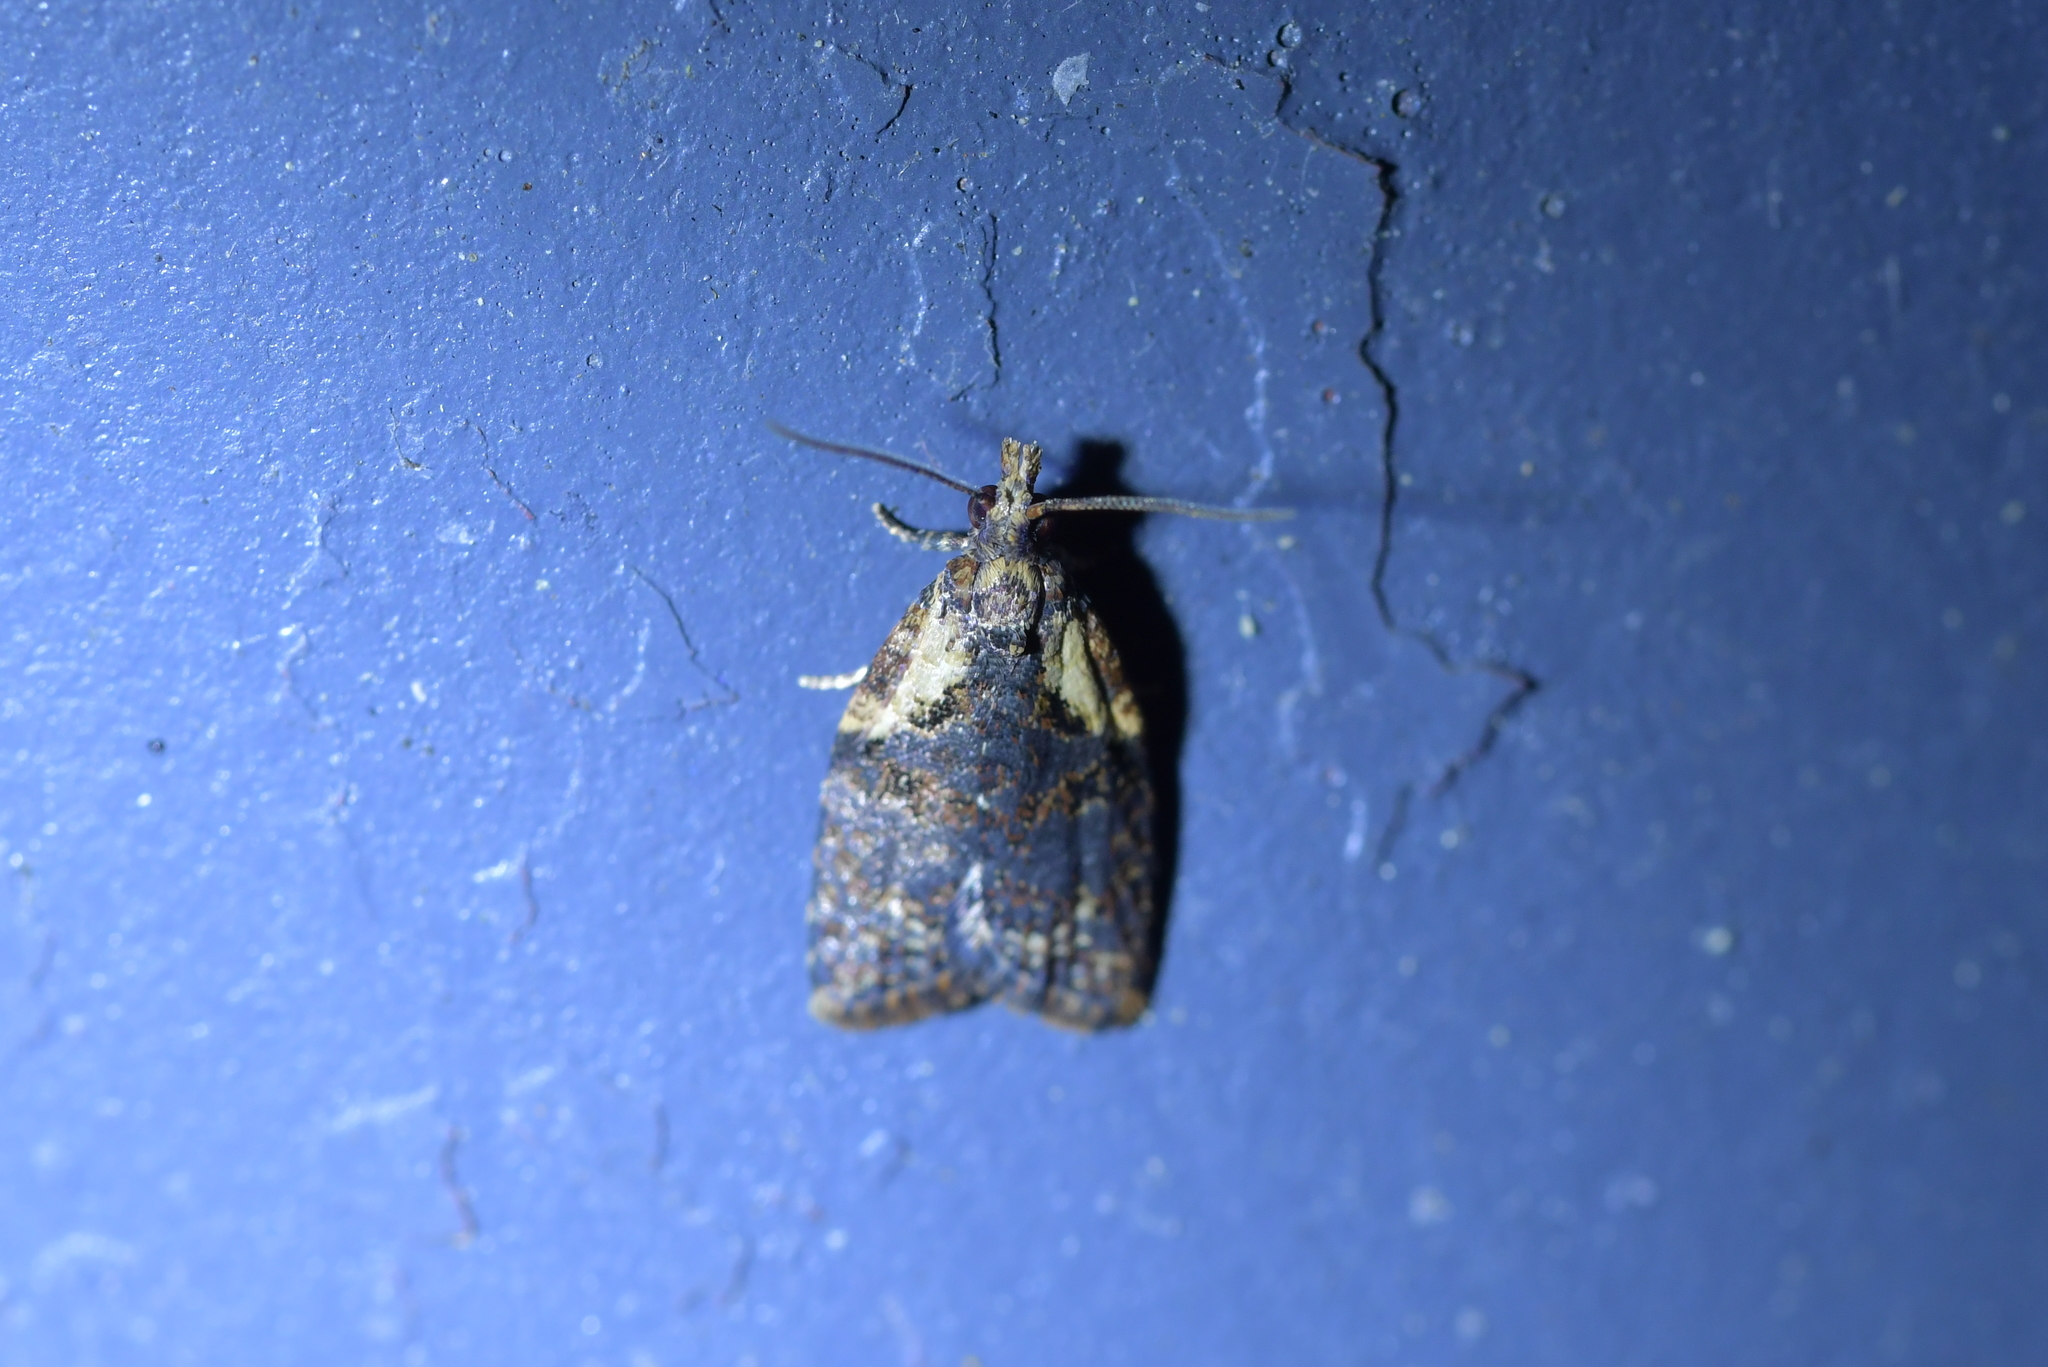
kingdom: Animalia
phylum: Arthropoda
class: Insecta
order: Lepidoptera
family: Tortricidae
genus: Capua
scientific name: Capua intractana
